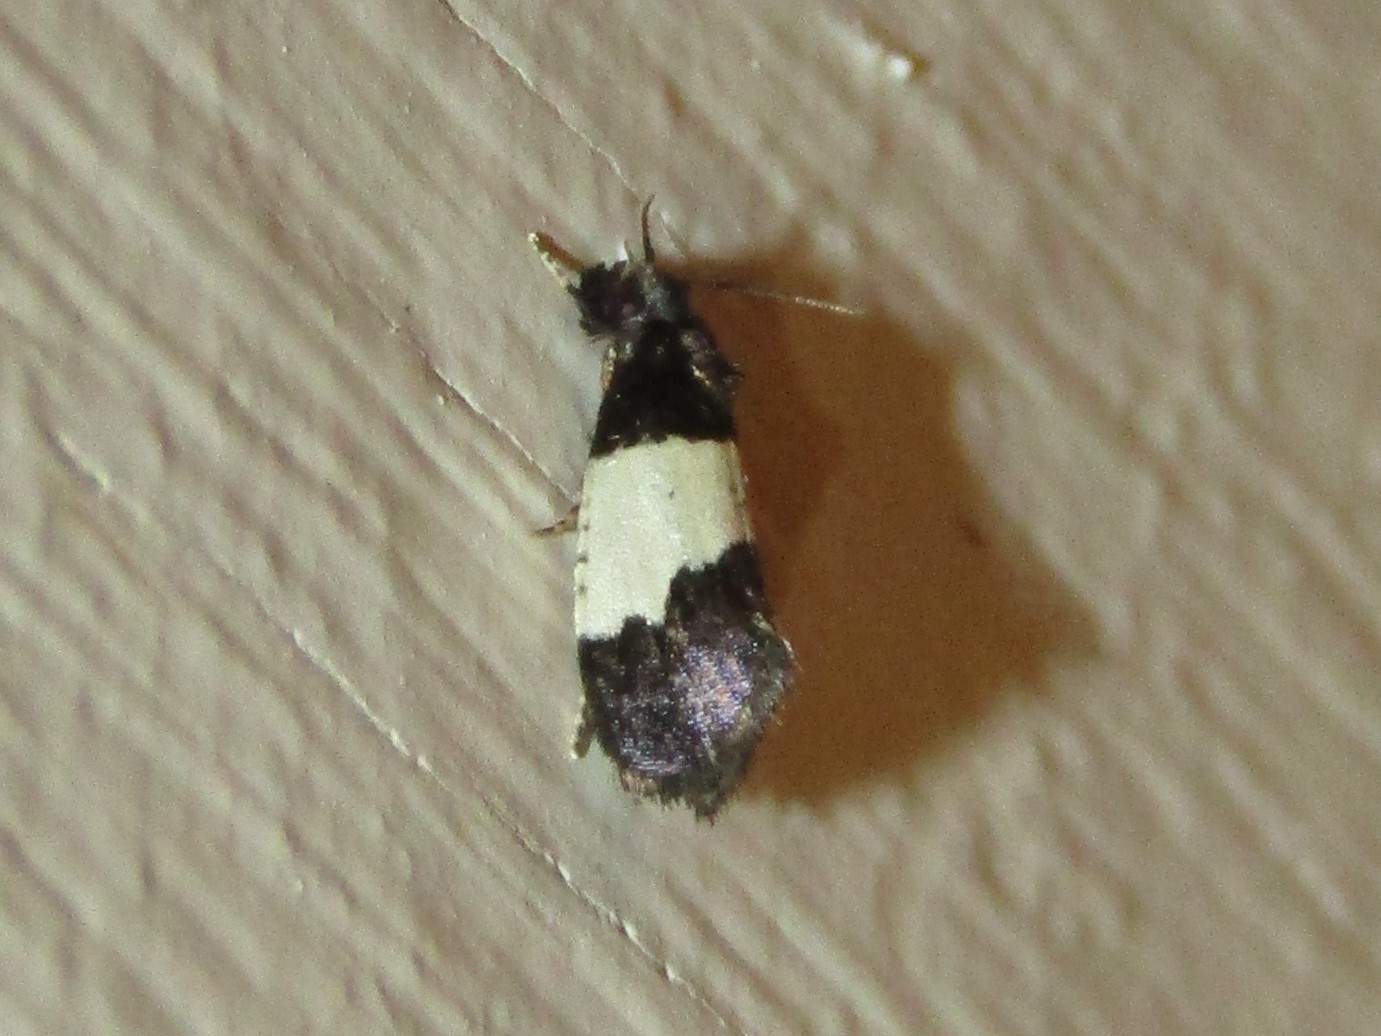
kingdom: Animalia
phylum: Arthropoda
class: Insecta
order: Lepidoptera
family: Psychidae
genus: Kearfottia
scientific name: Kearfottia albifasciella
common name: White-patched kearfottia
